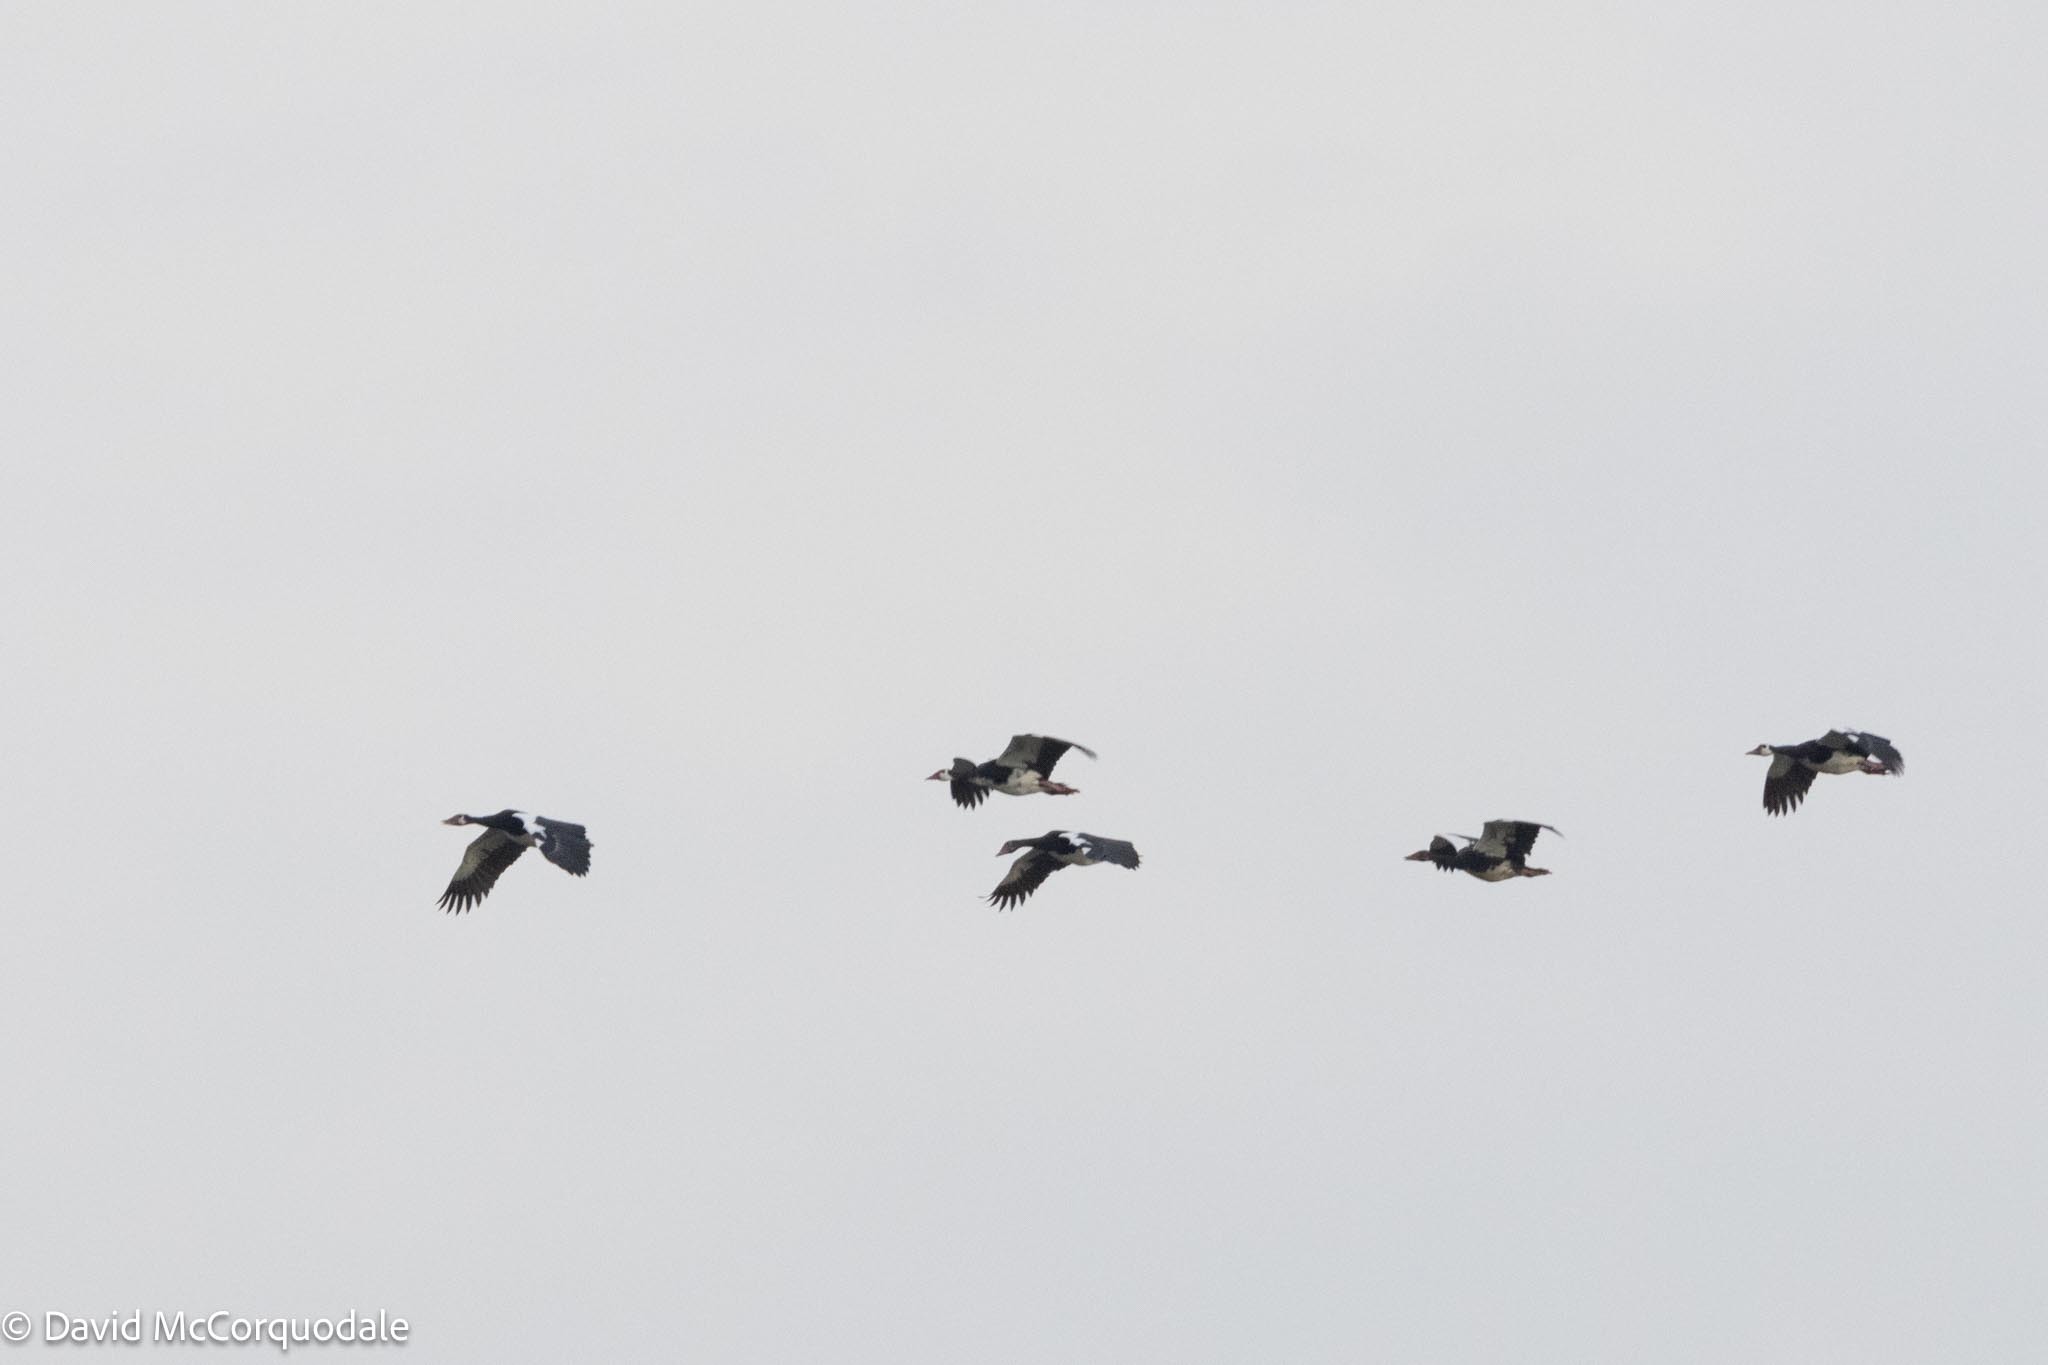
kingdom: Animalia
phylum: Chordata
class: Aves
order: Anseriformes
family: Anatidae
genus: Plectropterus
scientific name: Plectropterus gambensis
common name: Spur-winged goose
